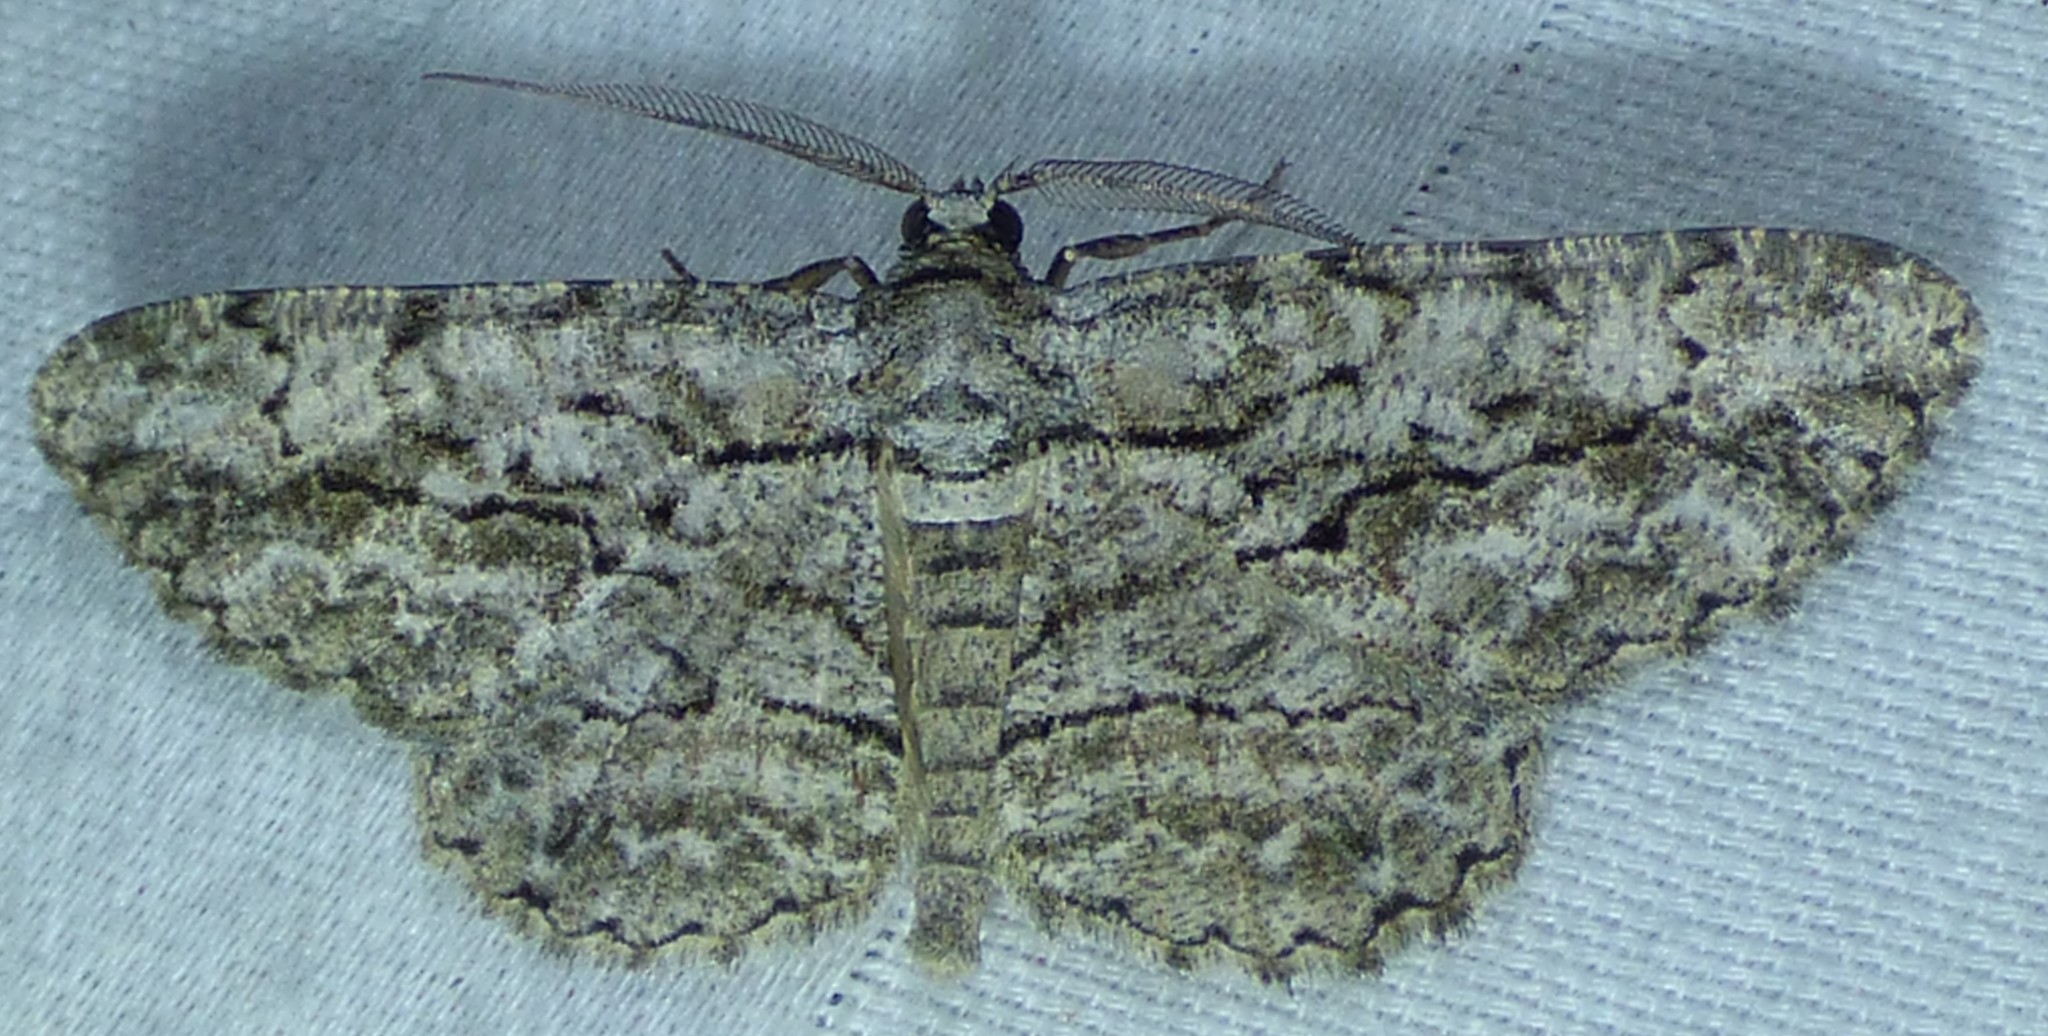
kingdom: Animalia
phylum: Arthropoda
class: Insecta
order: Lepidoptera
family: Geometridae
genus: Anavitrinella
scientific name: Anavitrinella pampinaria
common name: Common gray
